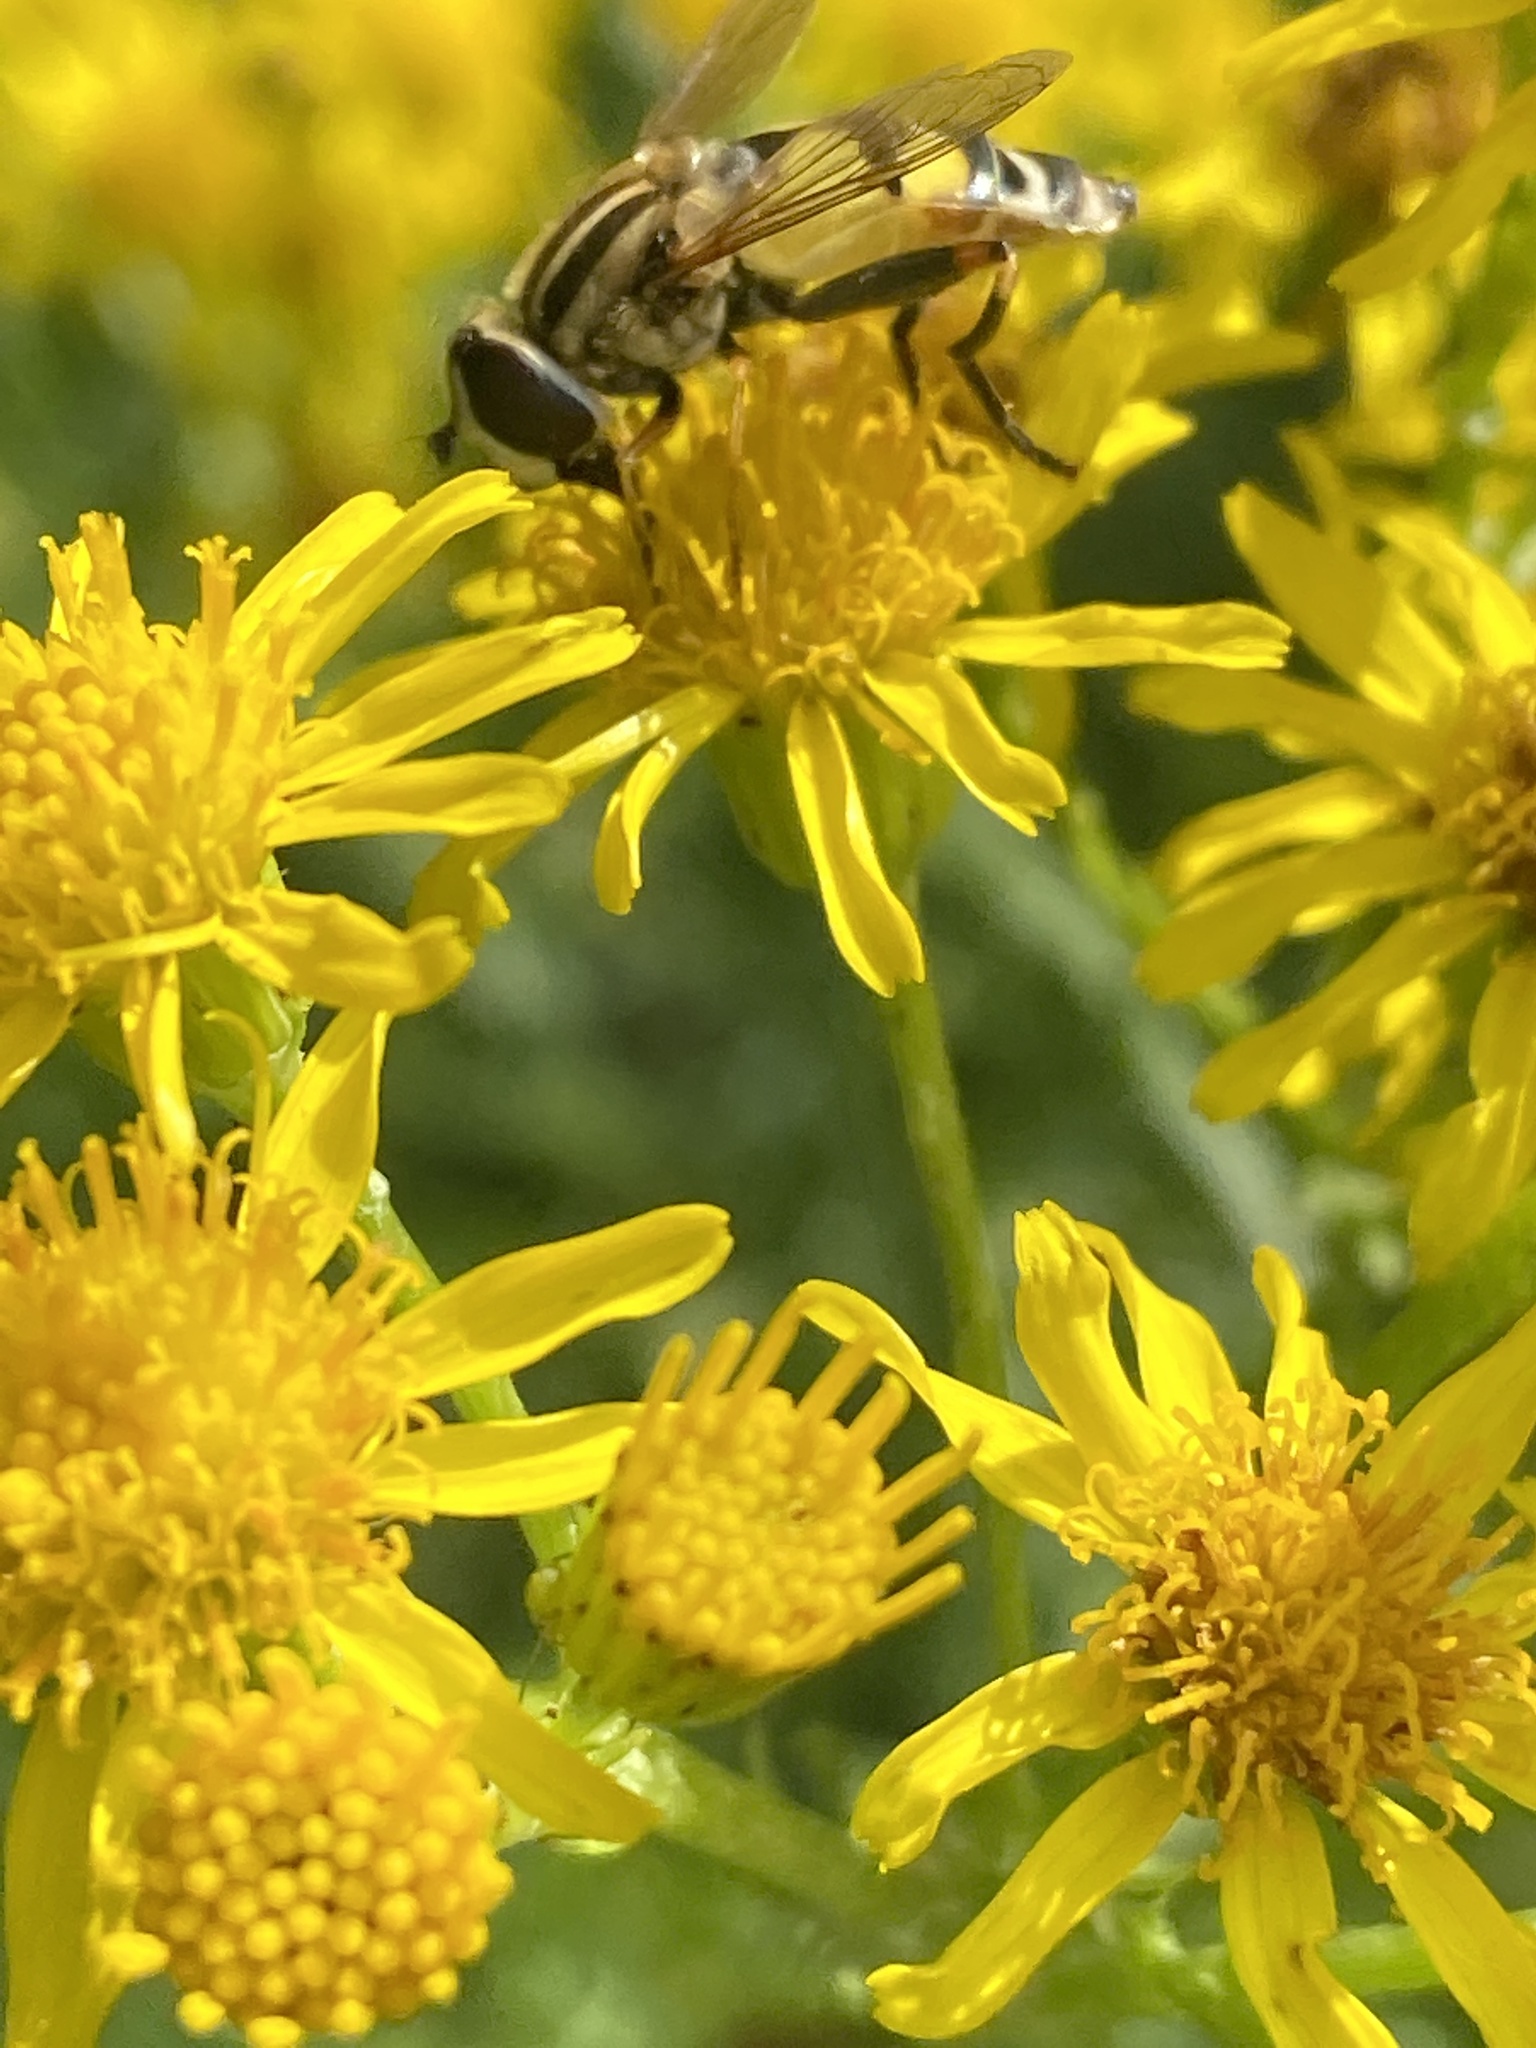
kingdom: Animalia
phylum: Arthropoda
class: Insecta
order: Diptera
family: Syrphidae
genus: Helophilus
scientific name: Helophilus trivittatus
